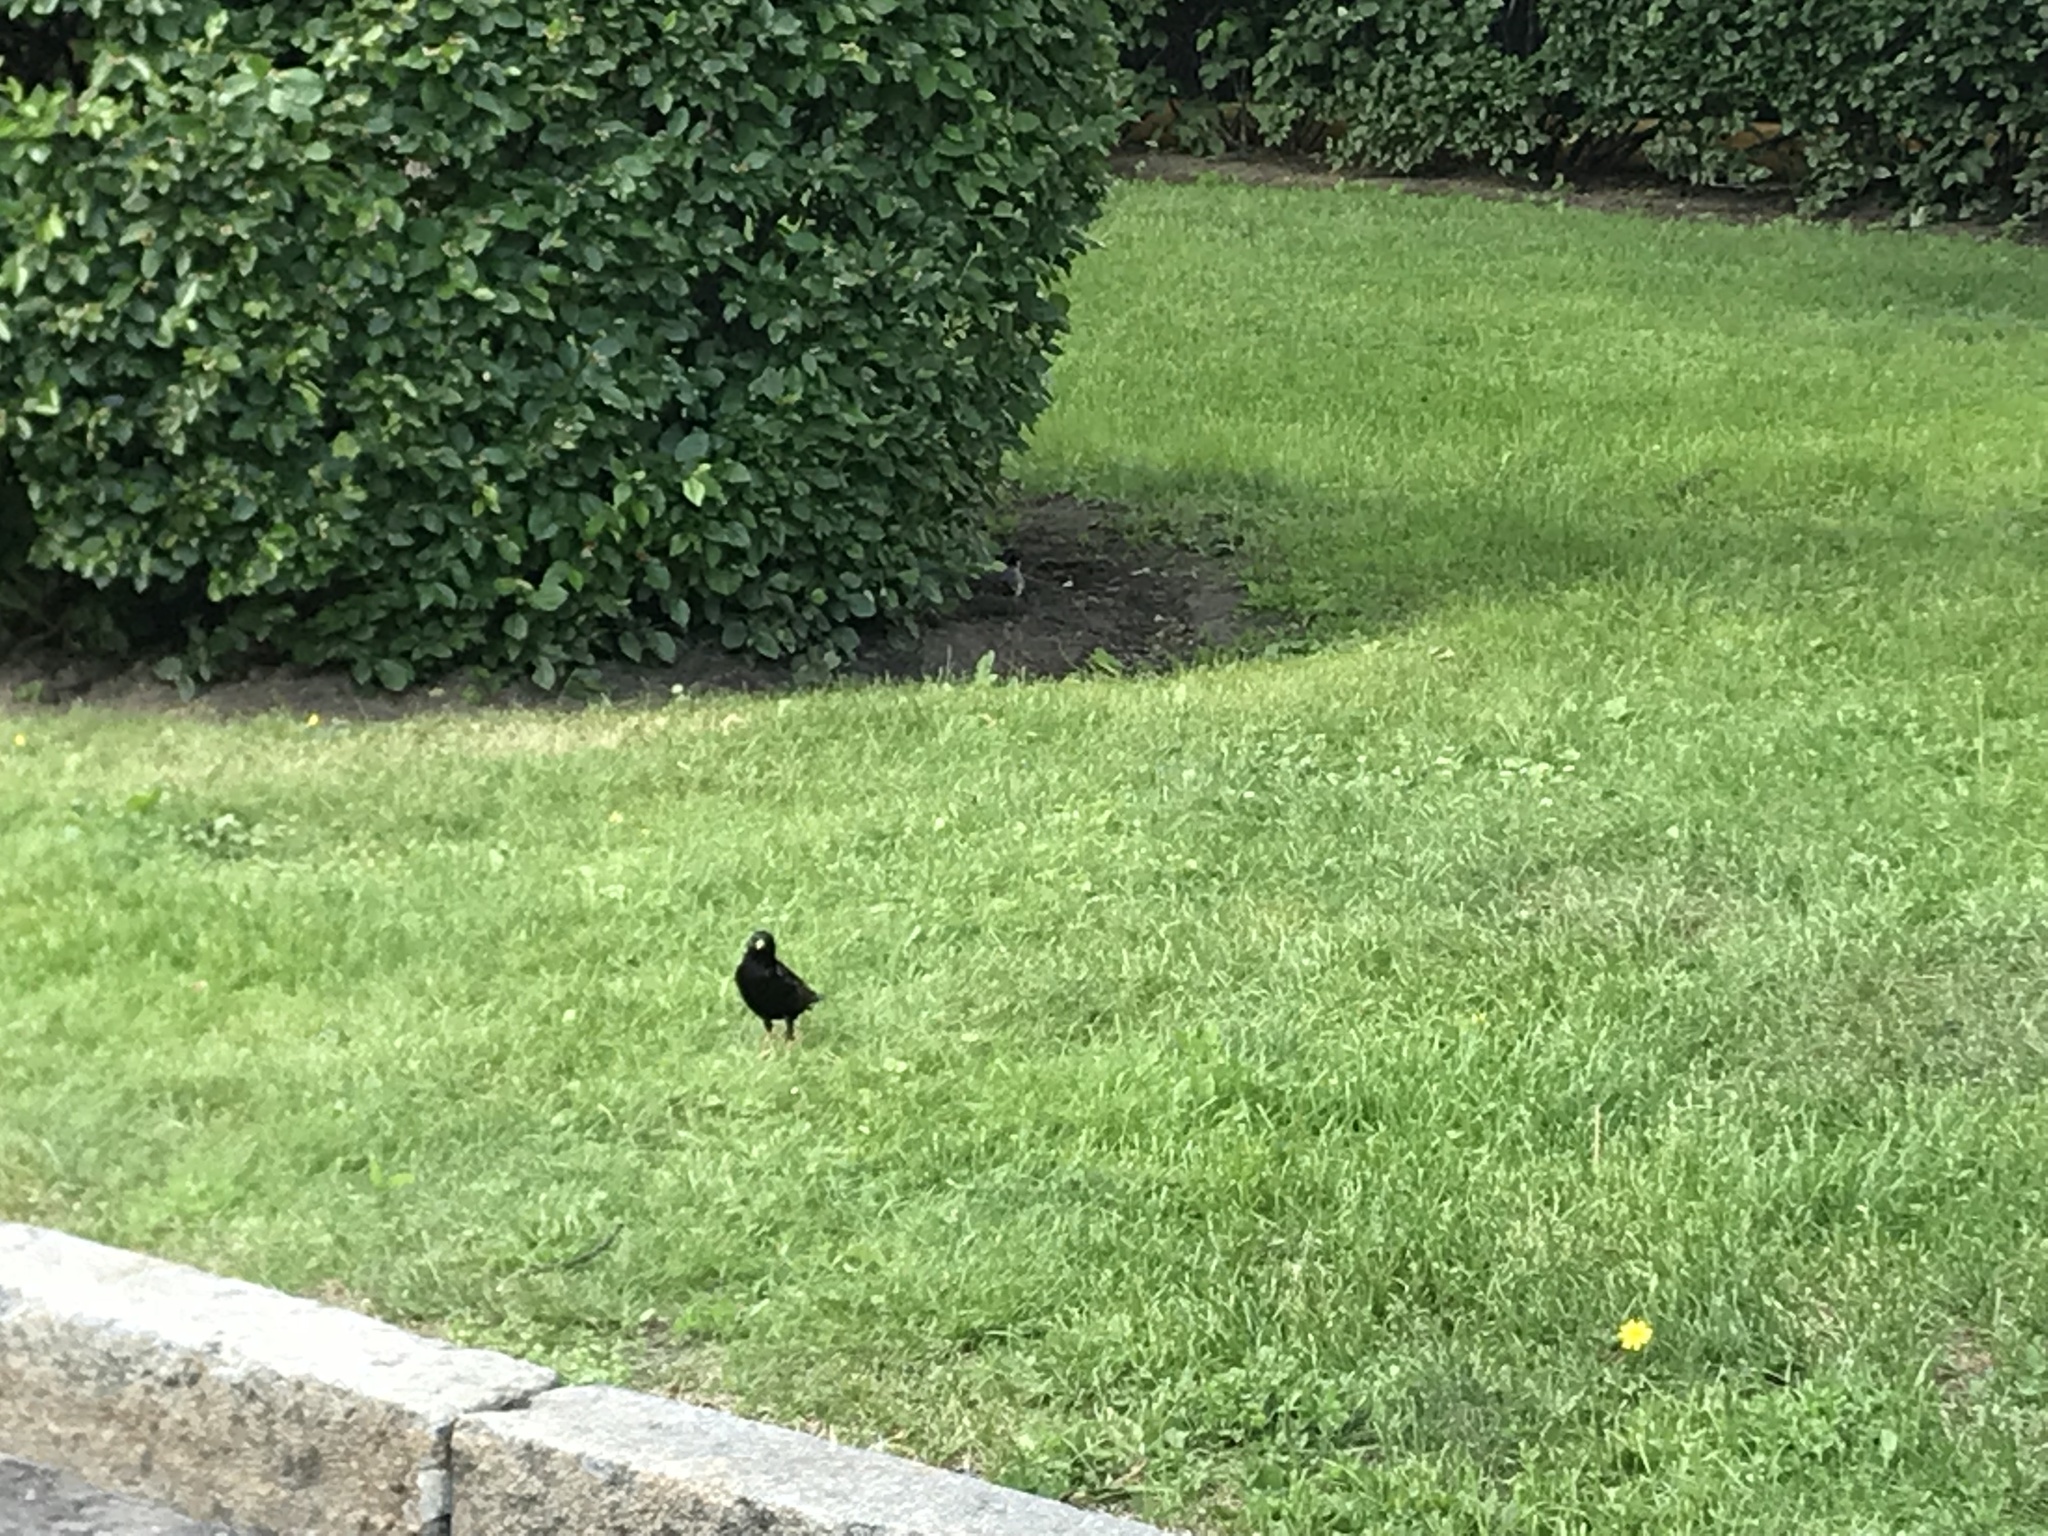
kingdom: Animalia
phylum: Chordata
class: Aves
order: Passeriformes
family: Sturnidae
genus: Sturnus
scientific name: Sturnus vulgaris
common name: Common starling
